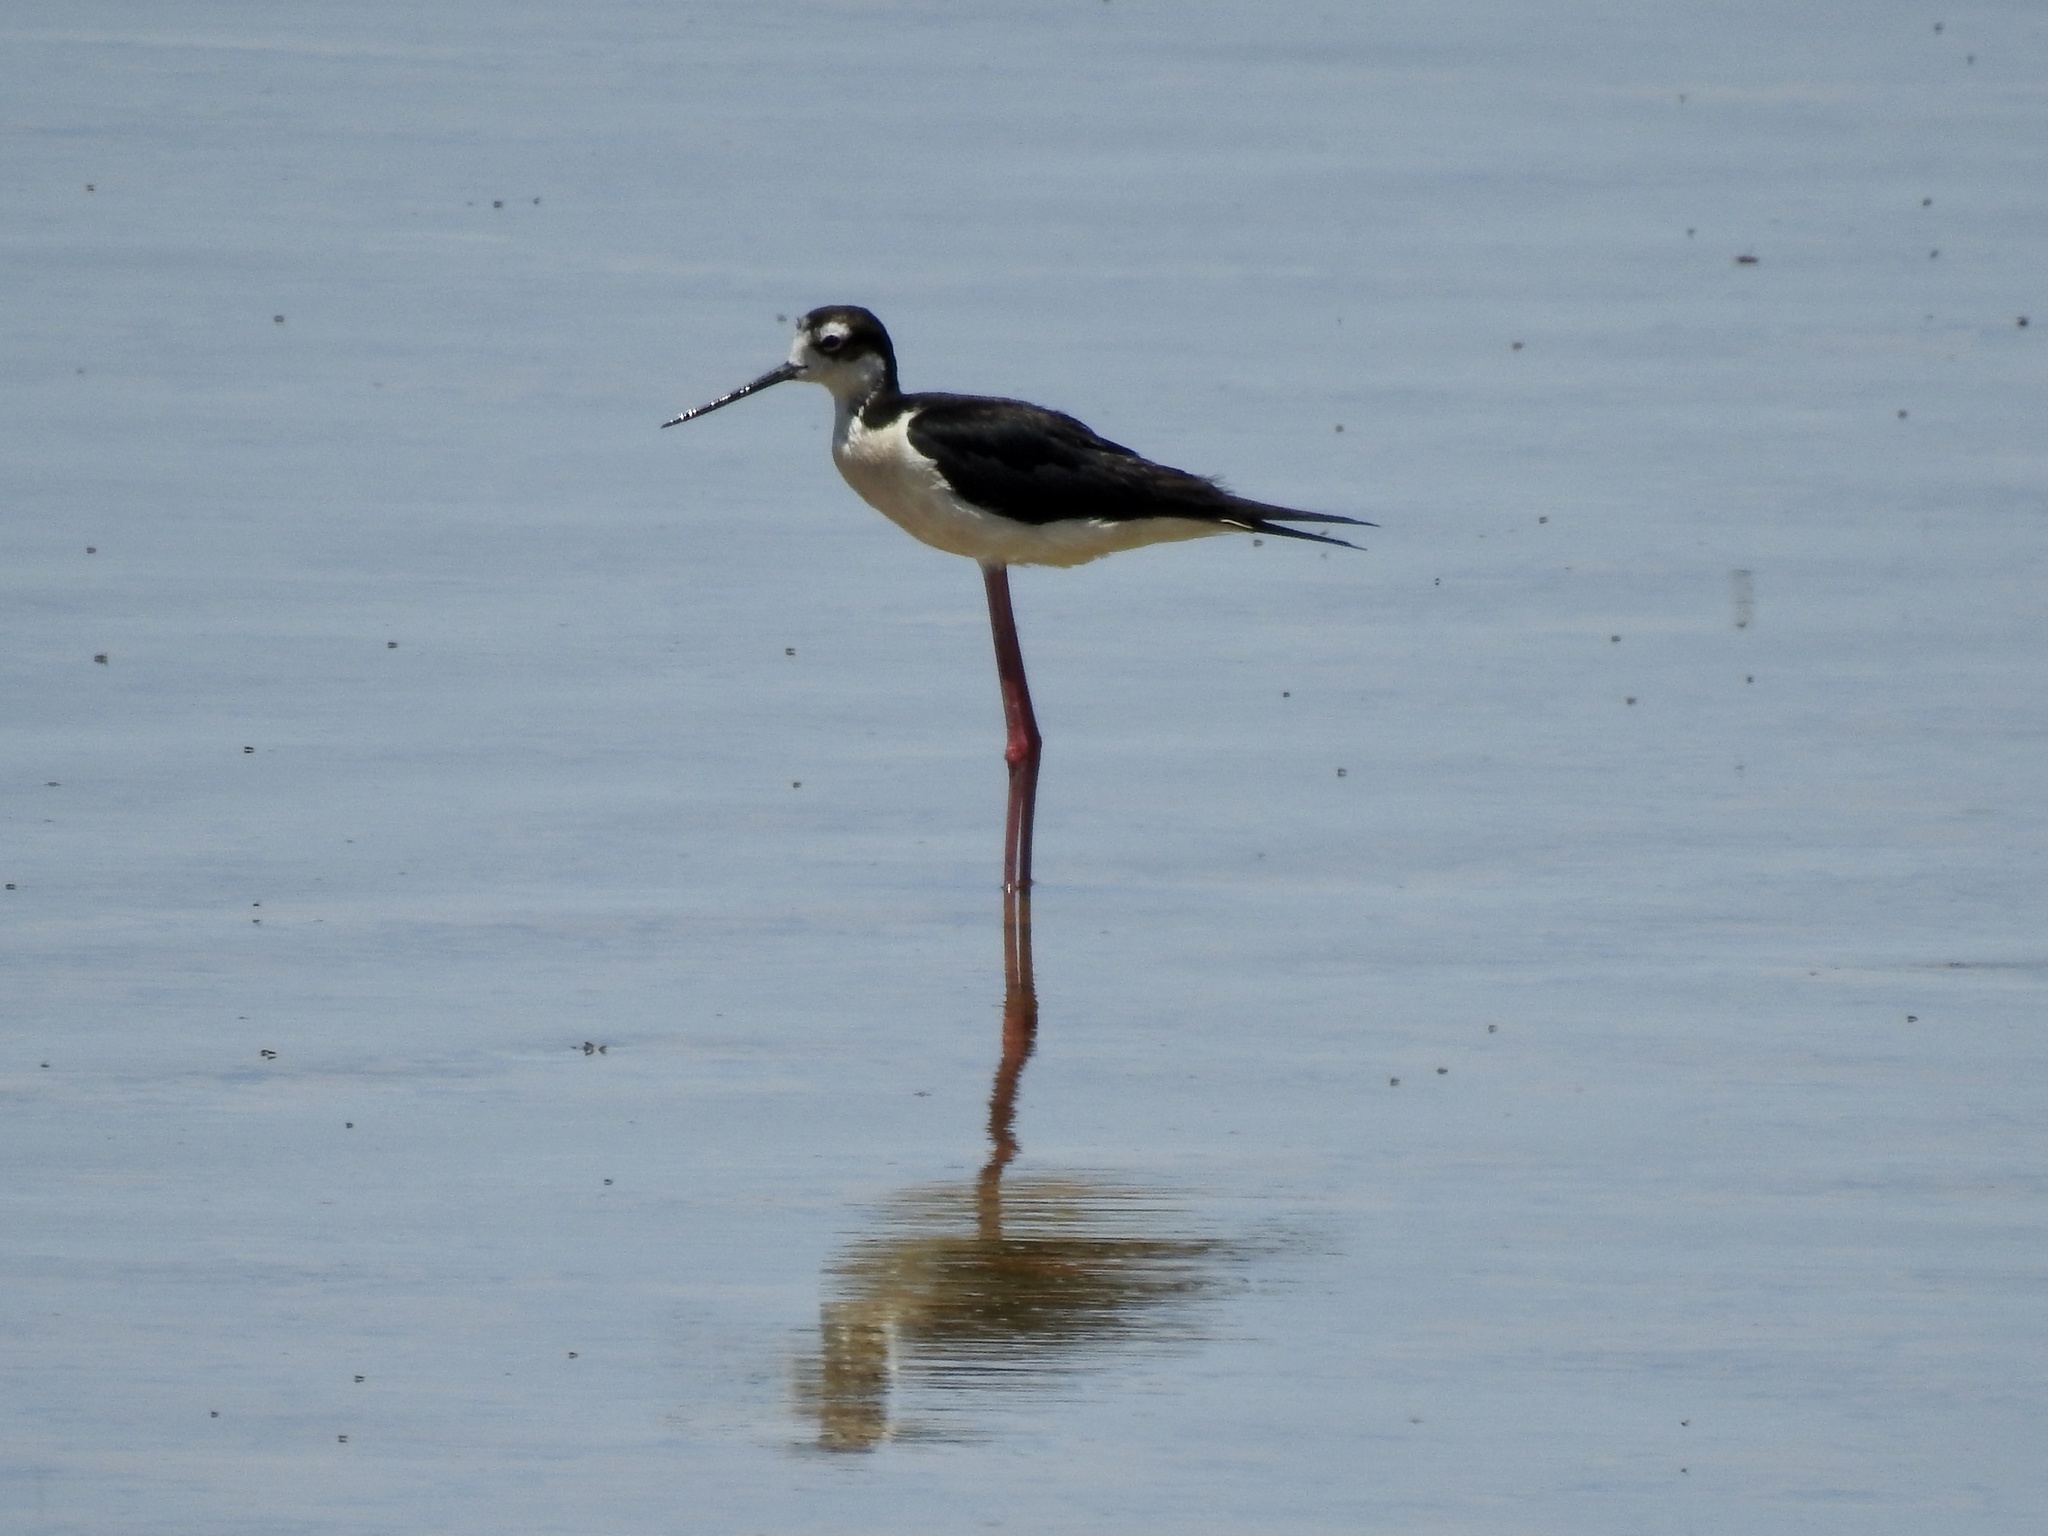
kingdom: Animalia
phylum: Chordata
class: Aves
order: Charadriiformes
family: Recurvirostridae
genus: Himantopus
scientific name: Himantopus mexicanus
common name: Black-necked stilt
